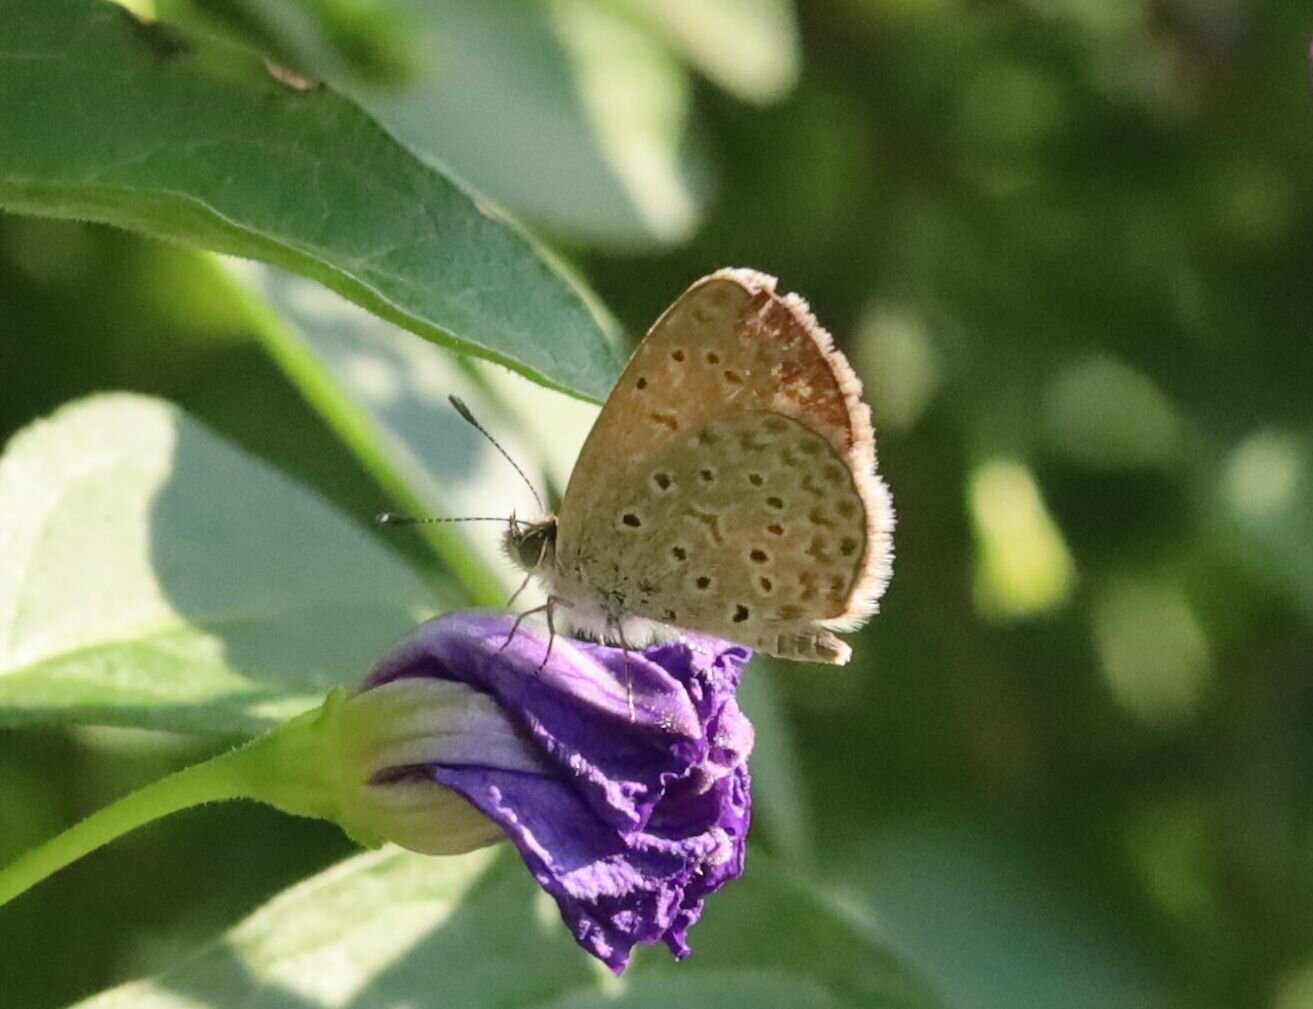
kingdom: Animalia
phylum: Arthropoda
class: Insecta
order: Lepidoptera
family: Lycaenidae
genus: Zizeeria
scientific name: Zizeeria knysna
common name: African grass blue
